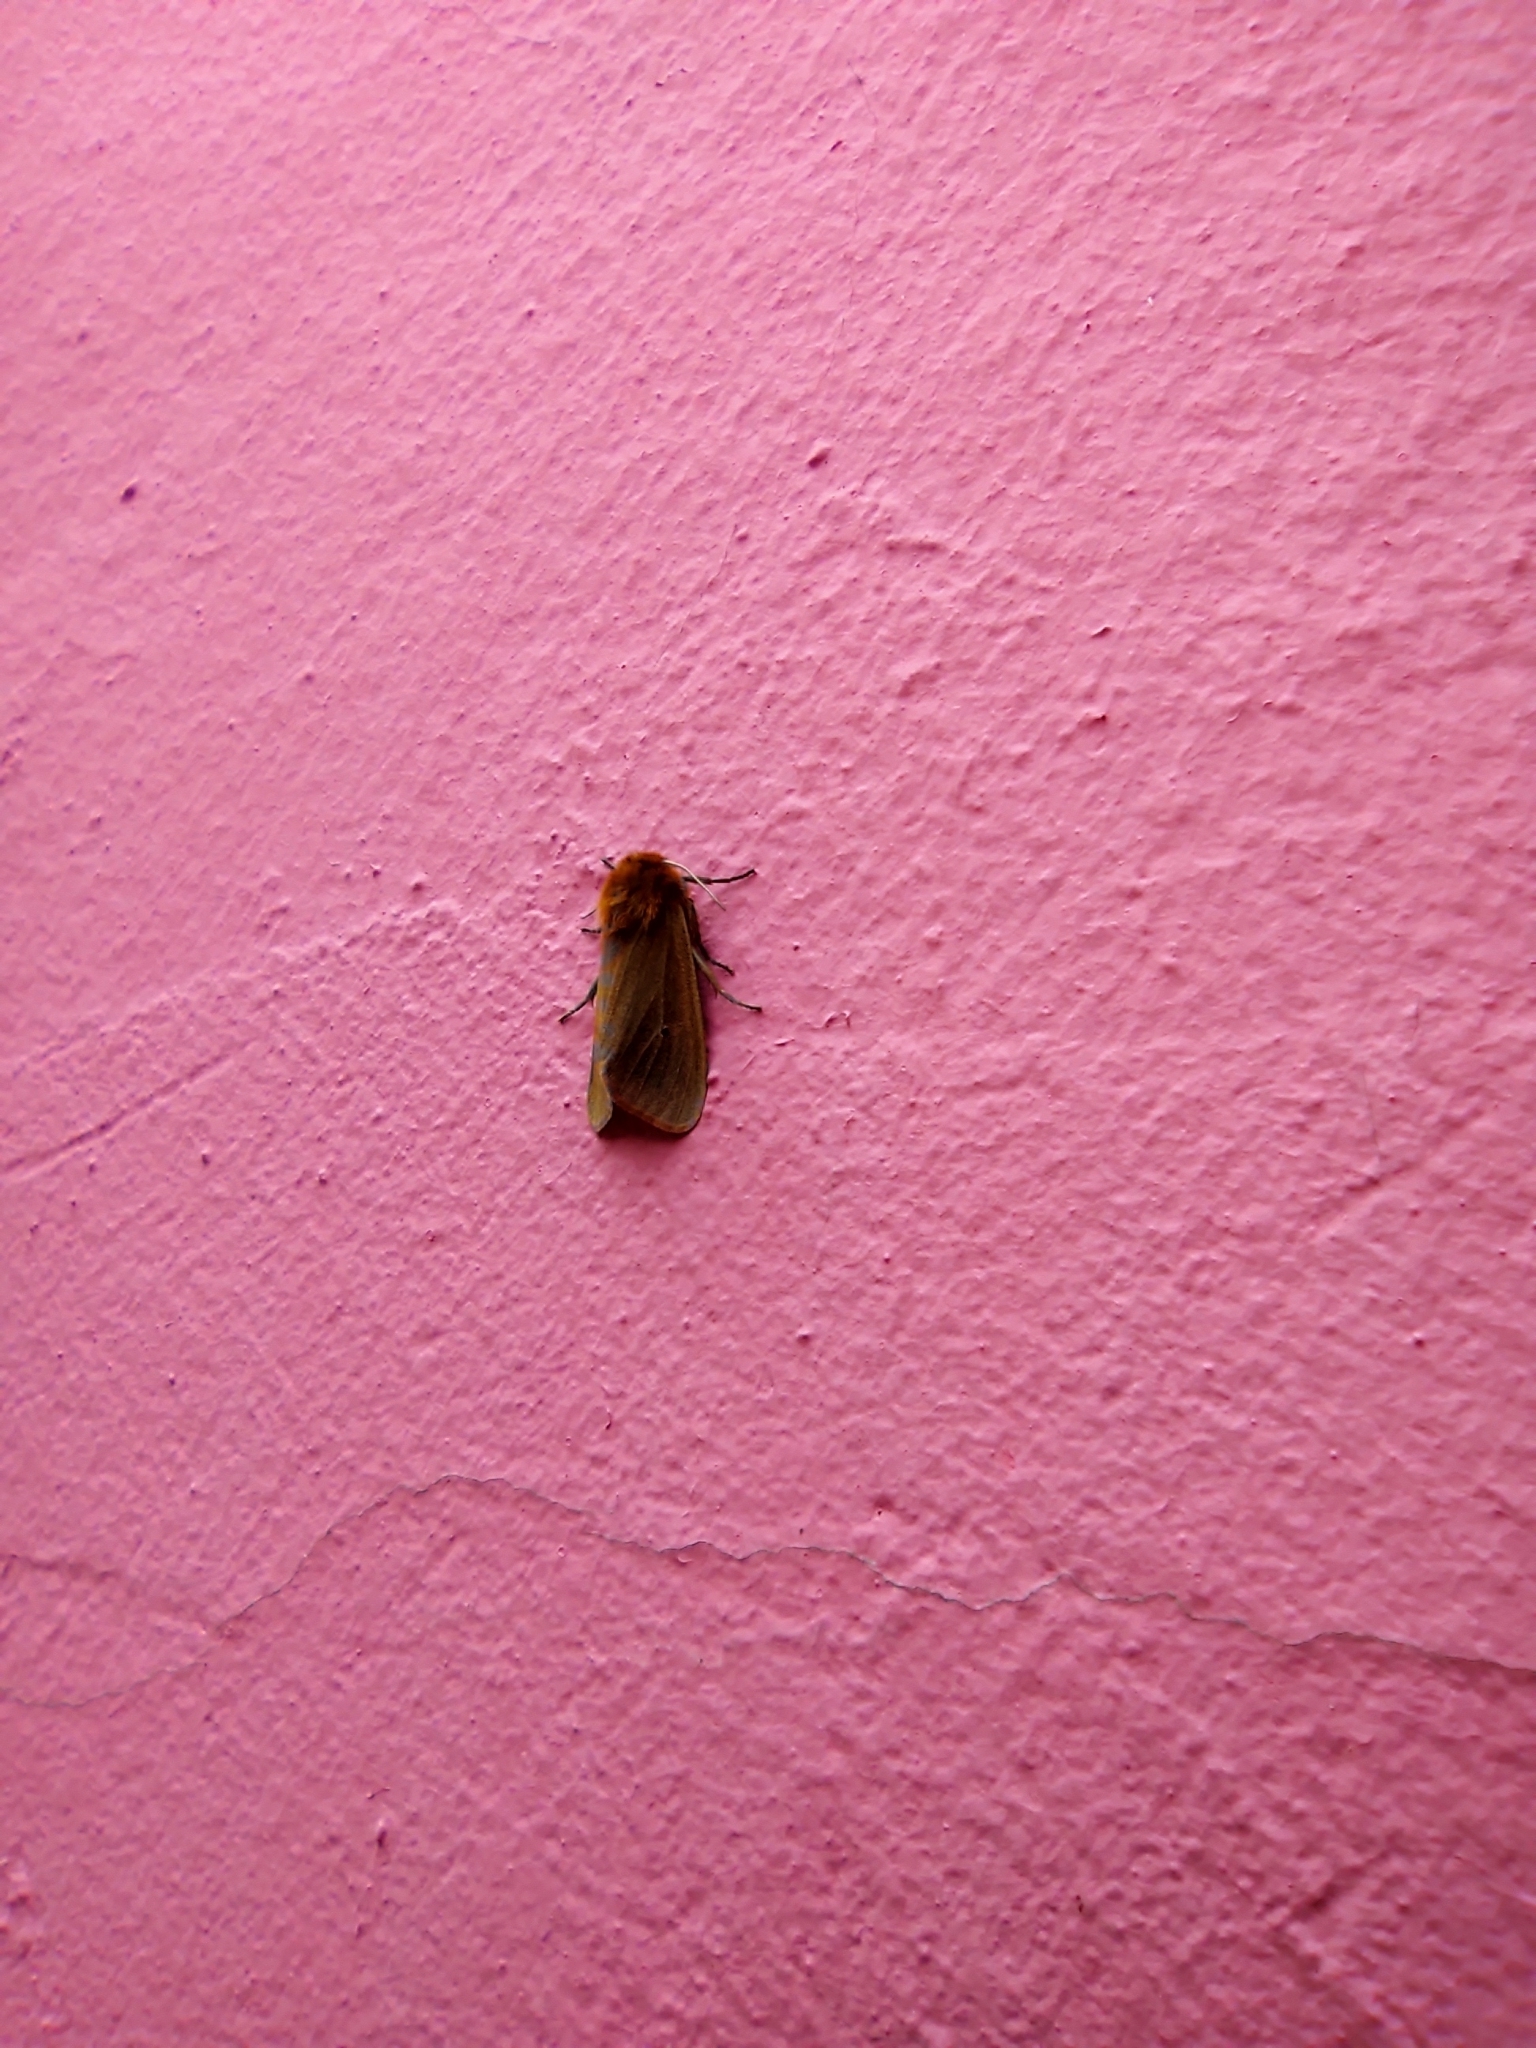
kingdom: Animalia
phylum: Arthropoda
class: Insecta
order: Lepidoptera
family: Erebidae
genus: Phragmatobia
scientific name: Phragmatobia fuliginosa
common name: Ruby tiger
